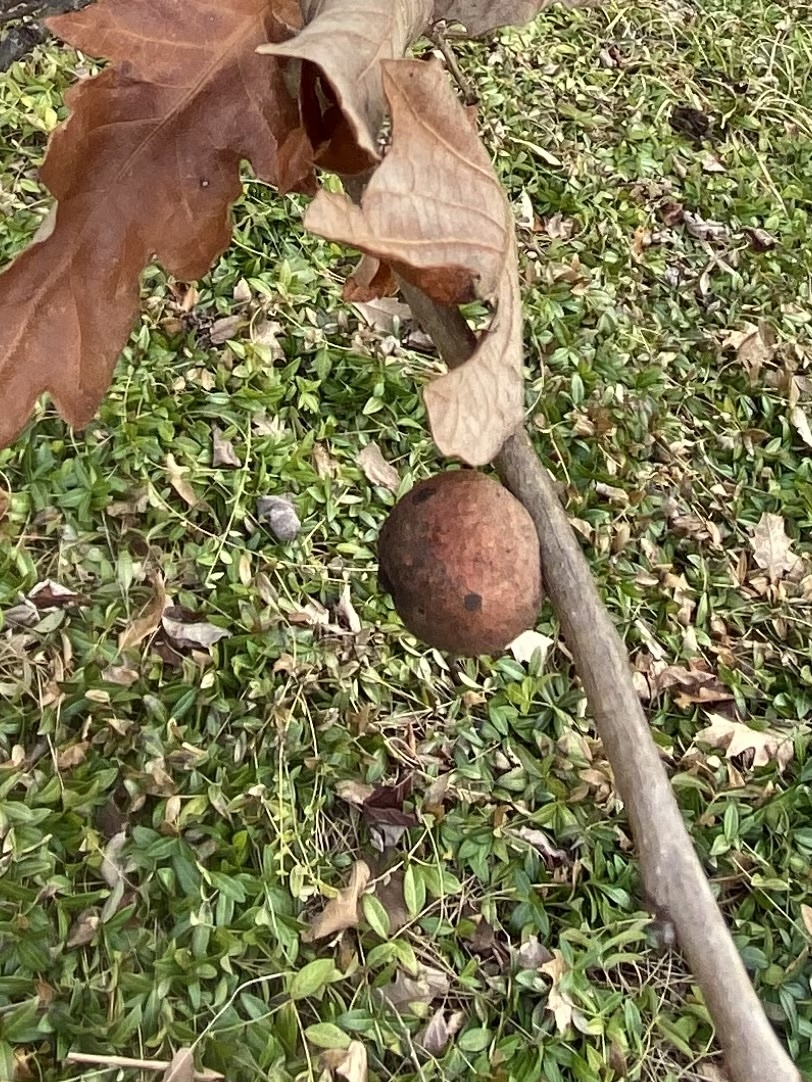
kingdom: Animalia
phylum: Arthropoda
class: Insecta
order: Hymenoptera
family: Cynipidae
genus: Disholcaspis
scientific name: Disholcaspis
